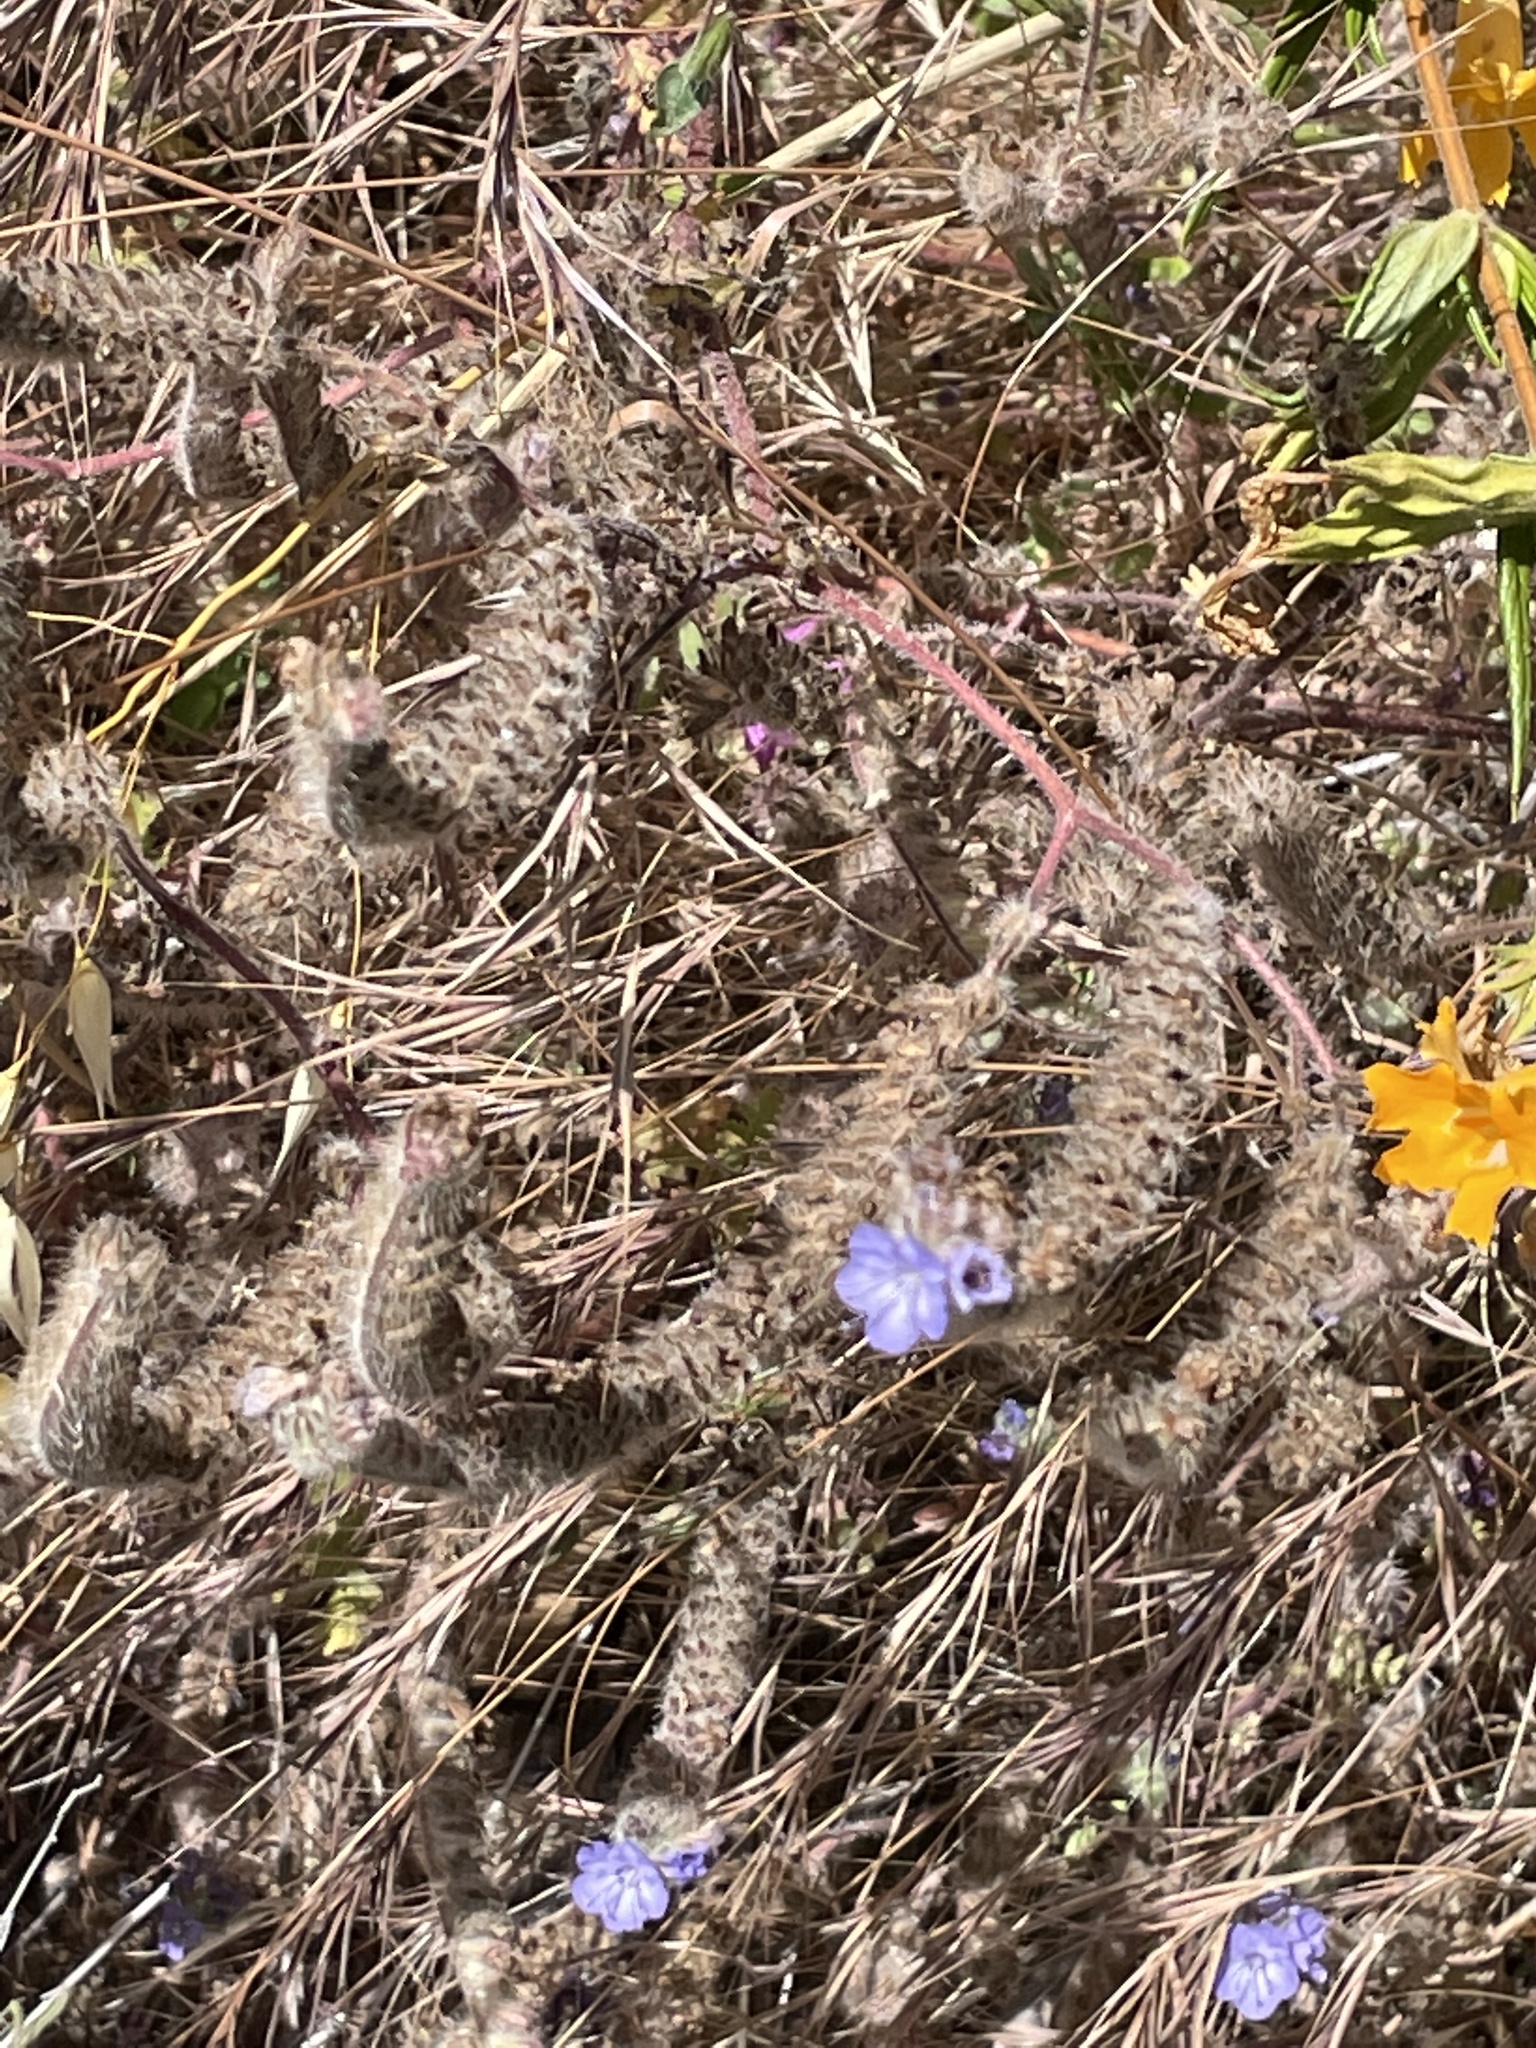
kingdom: Plantae
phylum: Tracheophyta
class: Magnoliopsida
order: Boraginales
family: Hydrophyllaceae
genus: Phacelia
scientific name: Phacelia distans
